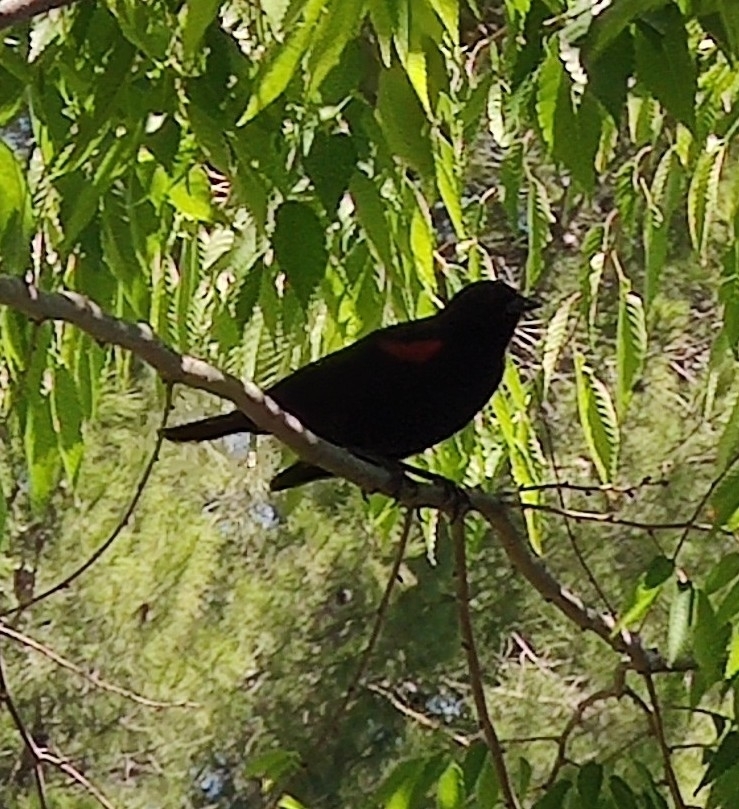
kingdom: Animalia
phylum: Chordata
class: Aves
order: Passeriformes
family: Icteridae
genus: Agelaius
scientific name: Agelaius phoeniceus
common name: Red-winged blackbird
